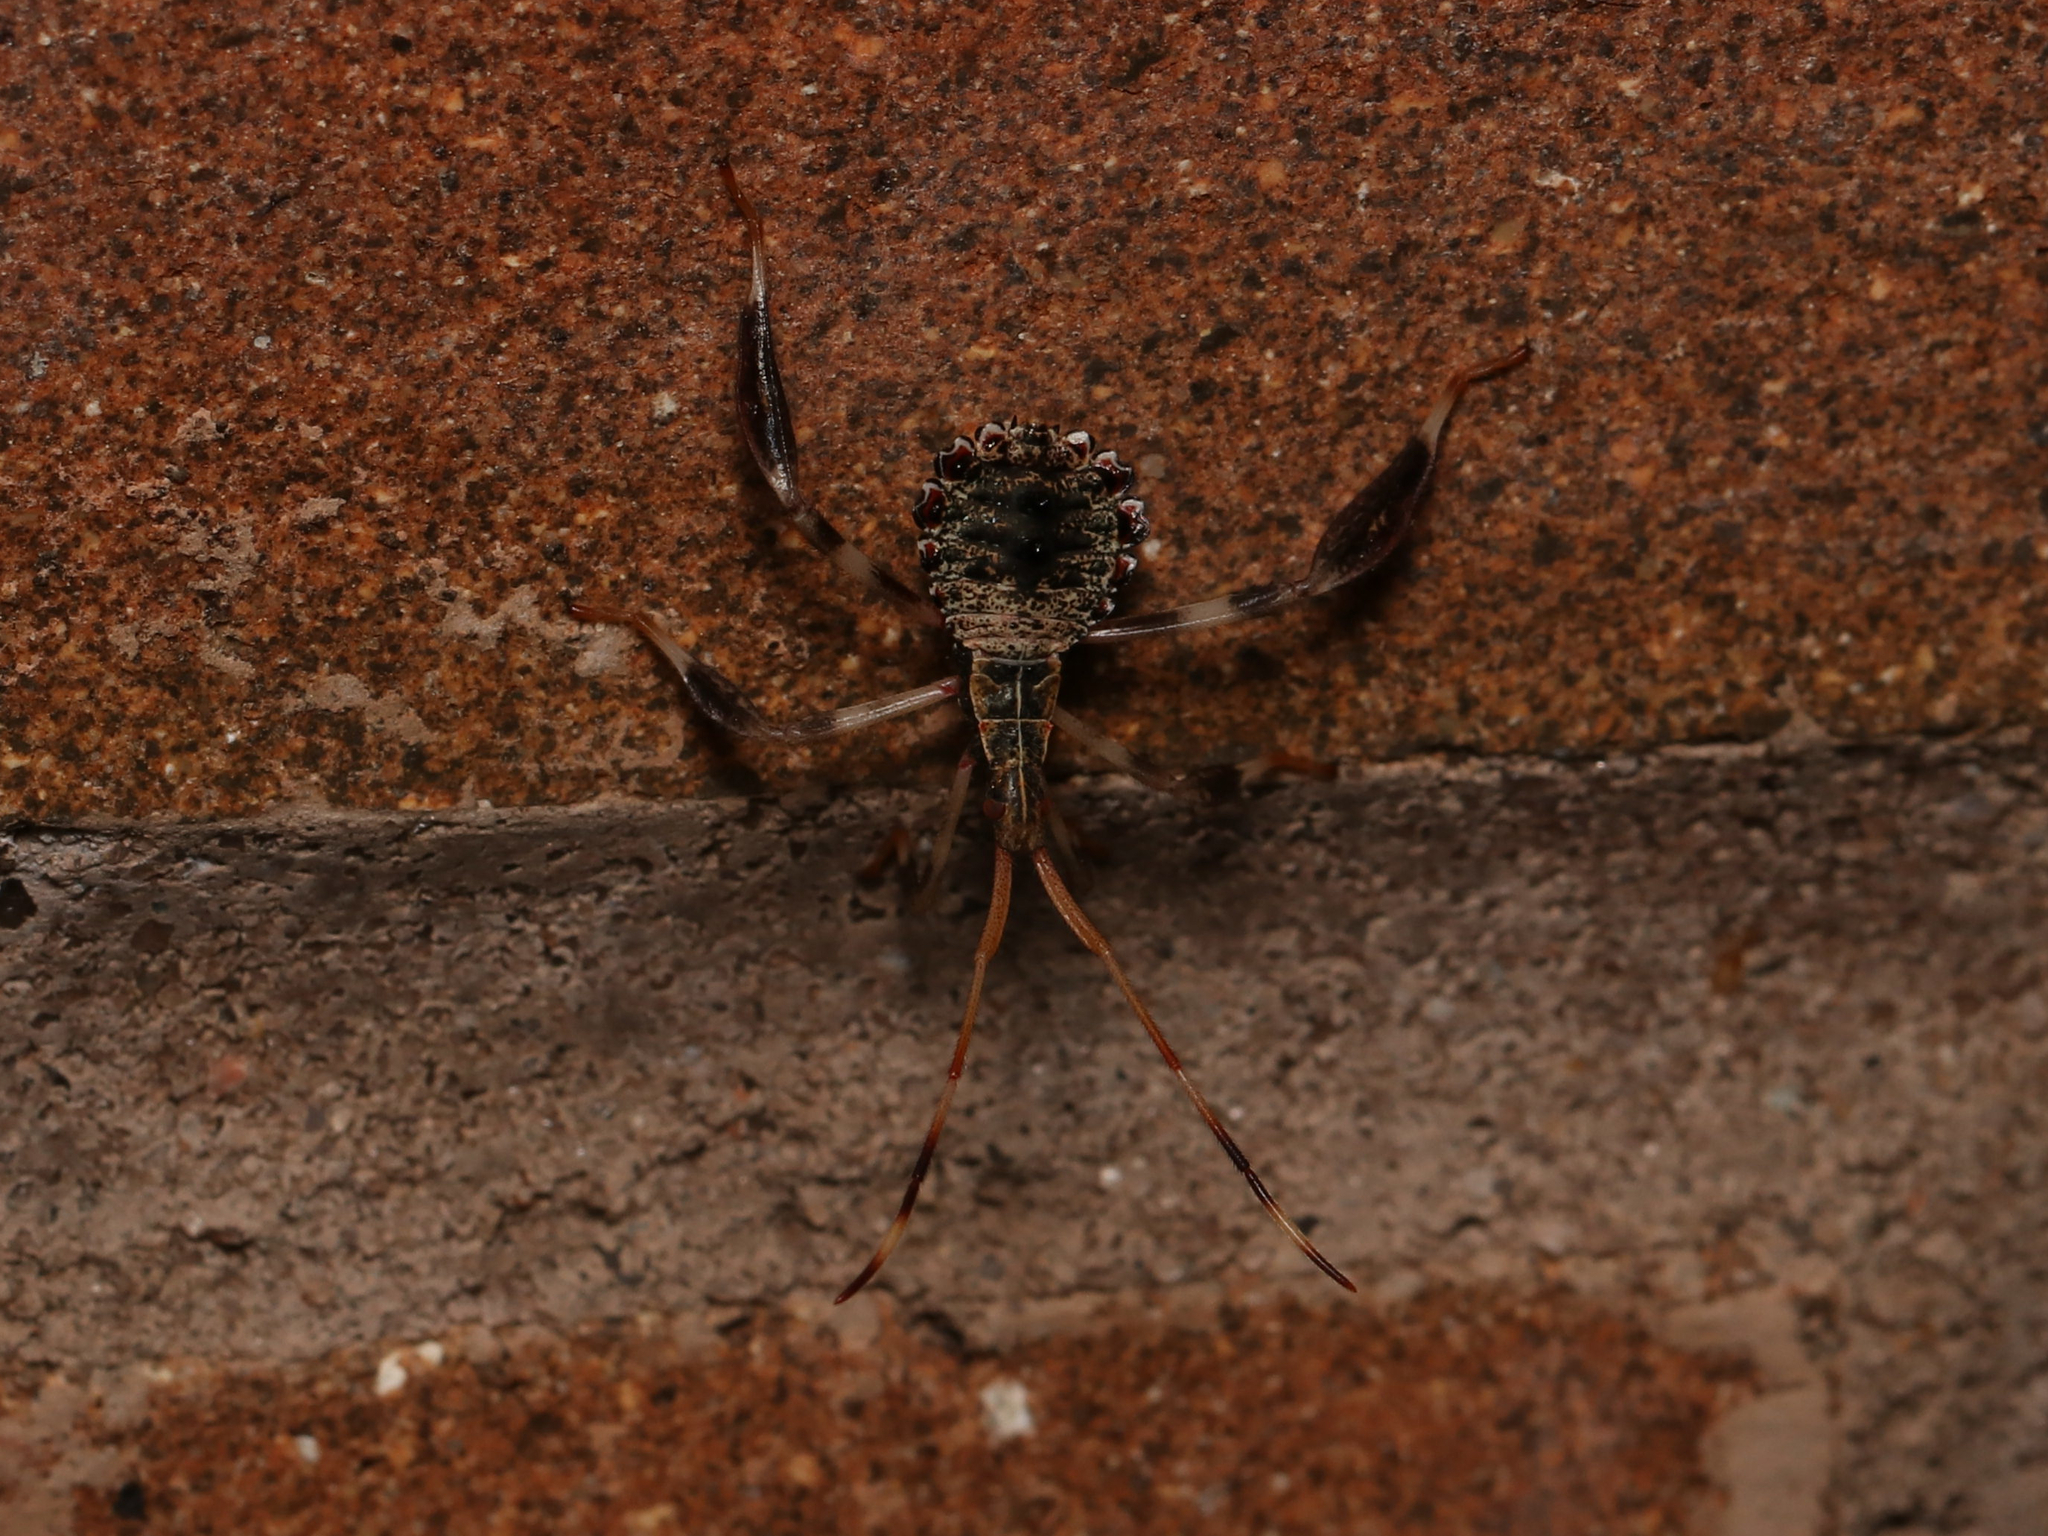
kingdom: Animalia
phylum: Arthropoda
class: Insecta
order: Hemiptera
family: Coreidae
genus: Acanthocephala
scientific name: Acanthocephala terminalis
